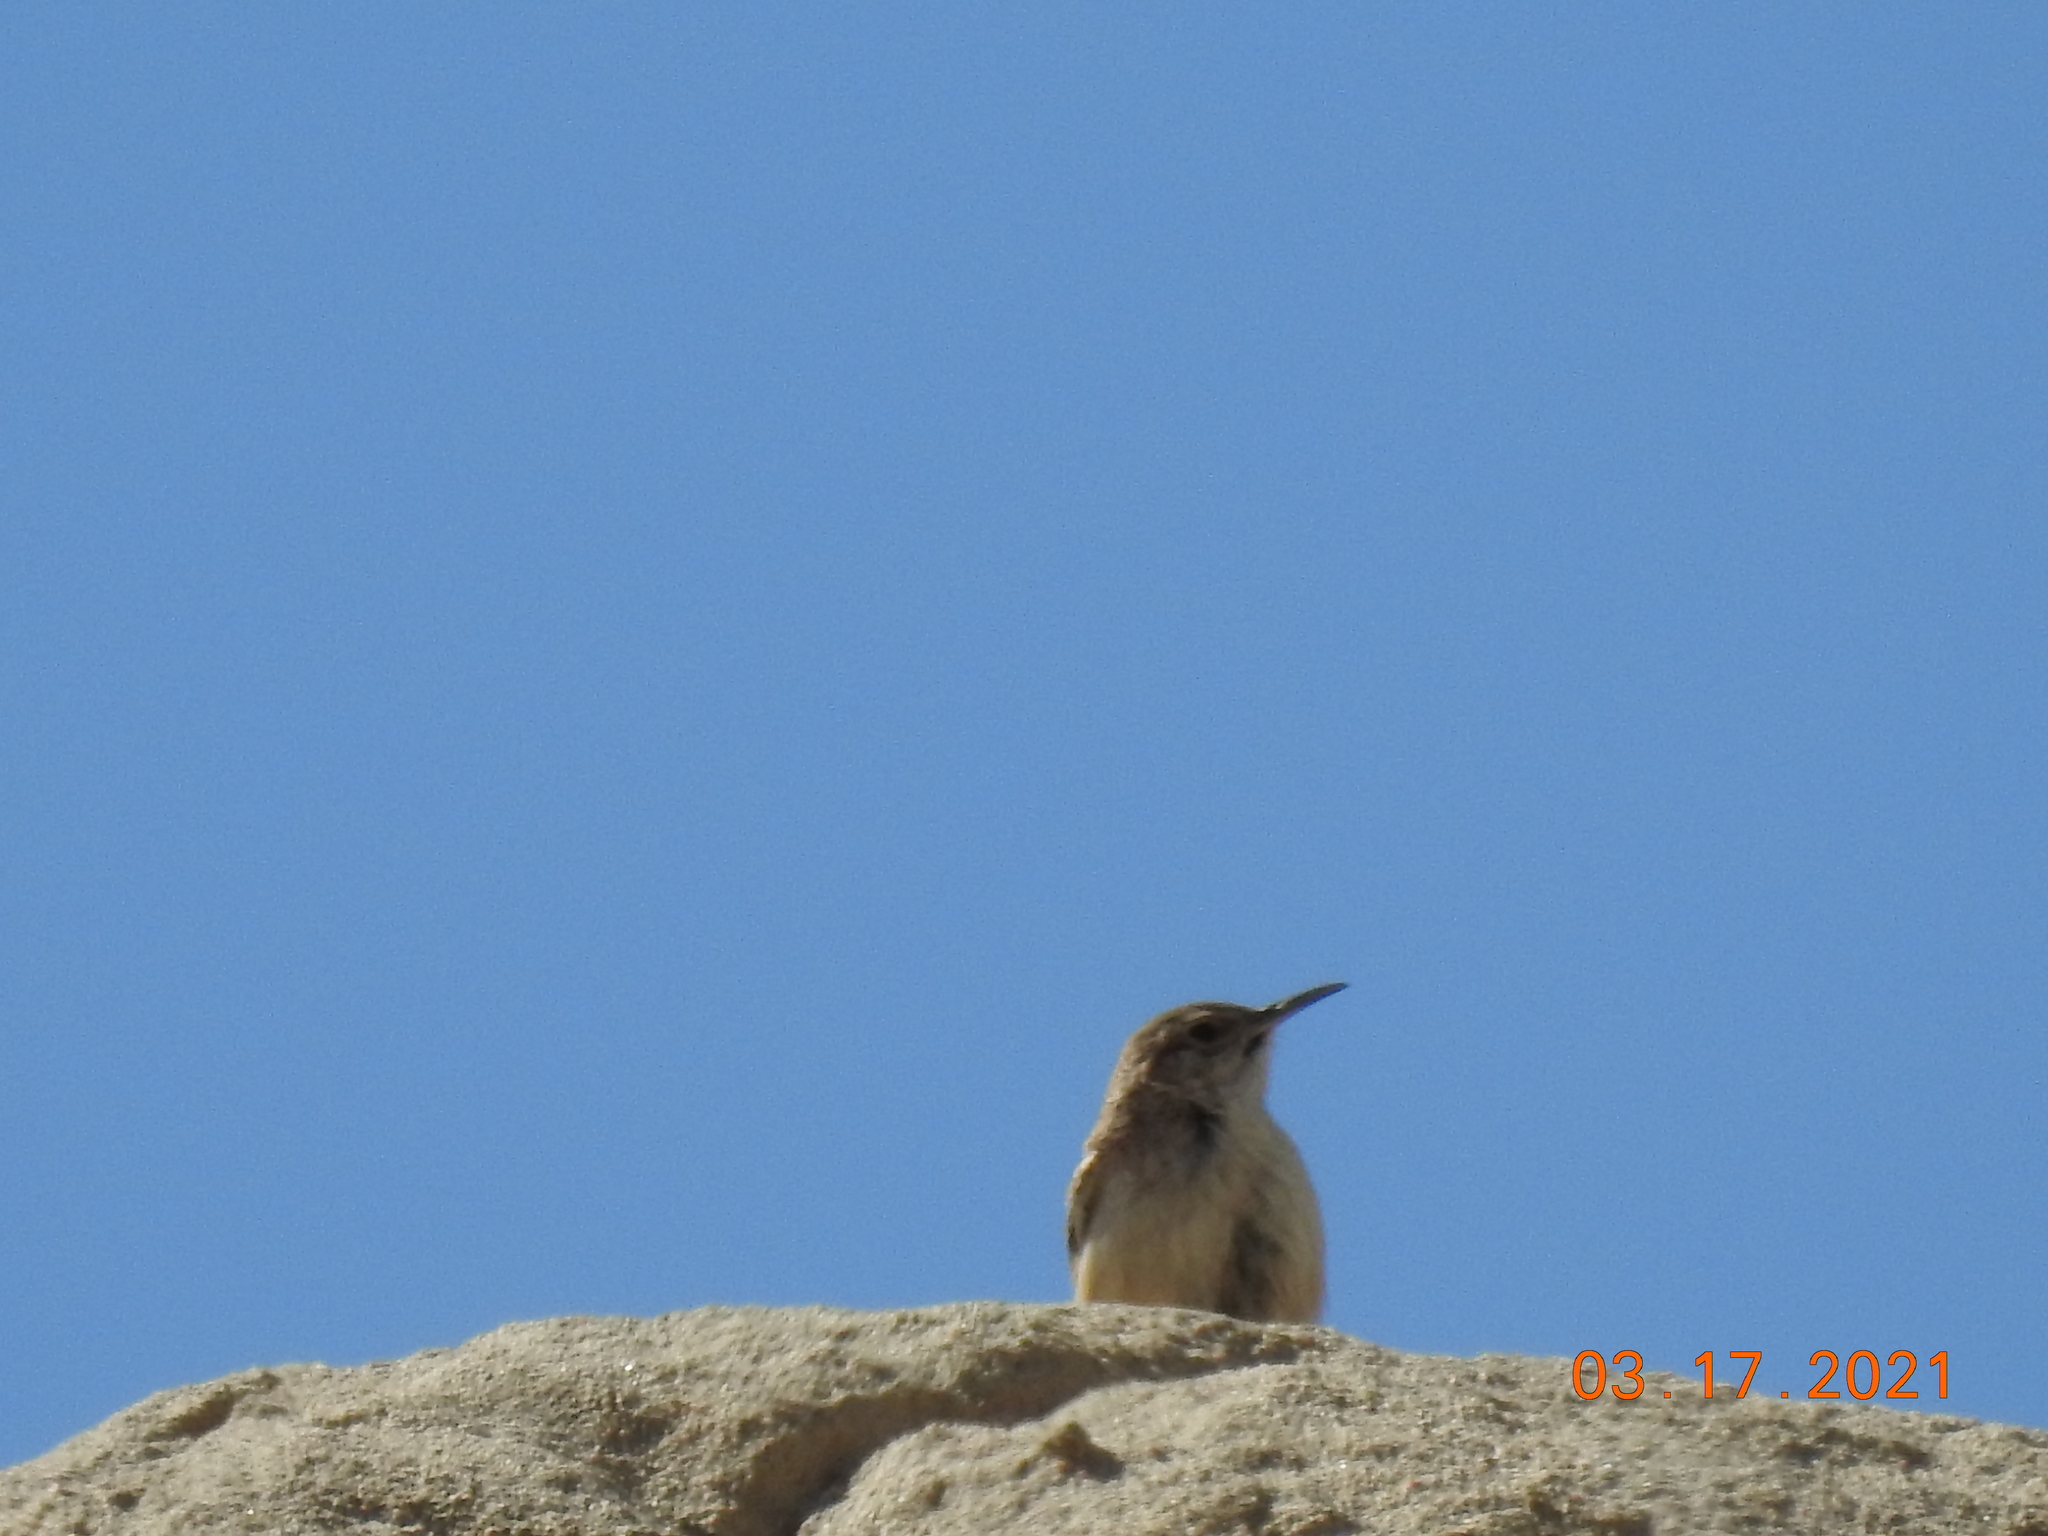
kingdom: Animalia
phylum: Chordata
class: Aves
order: Passeriformes
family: Troglodytidae
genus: Salpinctes
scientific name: Salpinctes obsoletus
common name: Rock wren
